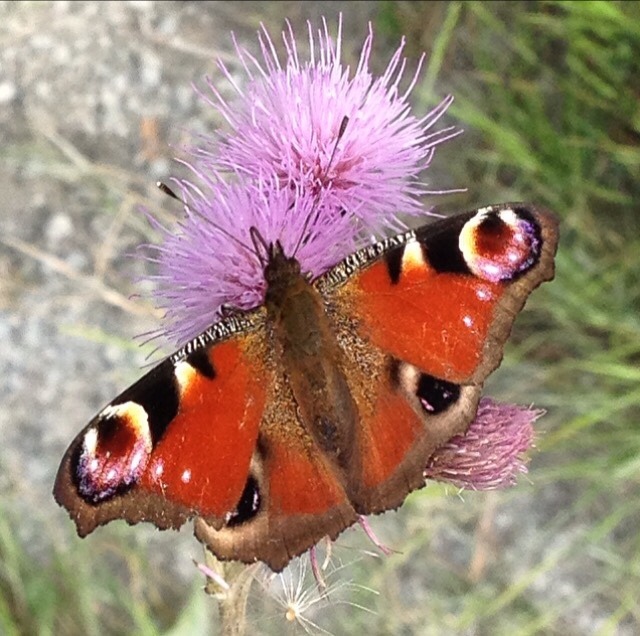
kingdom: Animalia
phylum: Arthropoda
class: Insecta
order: Lepidoptera
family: Nymphalidae
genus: Aglais
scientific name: Aglais io
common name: Peacock
